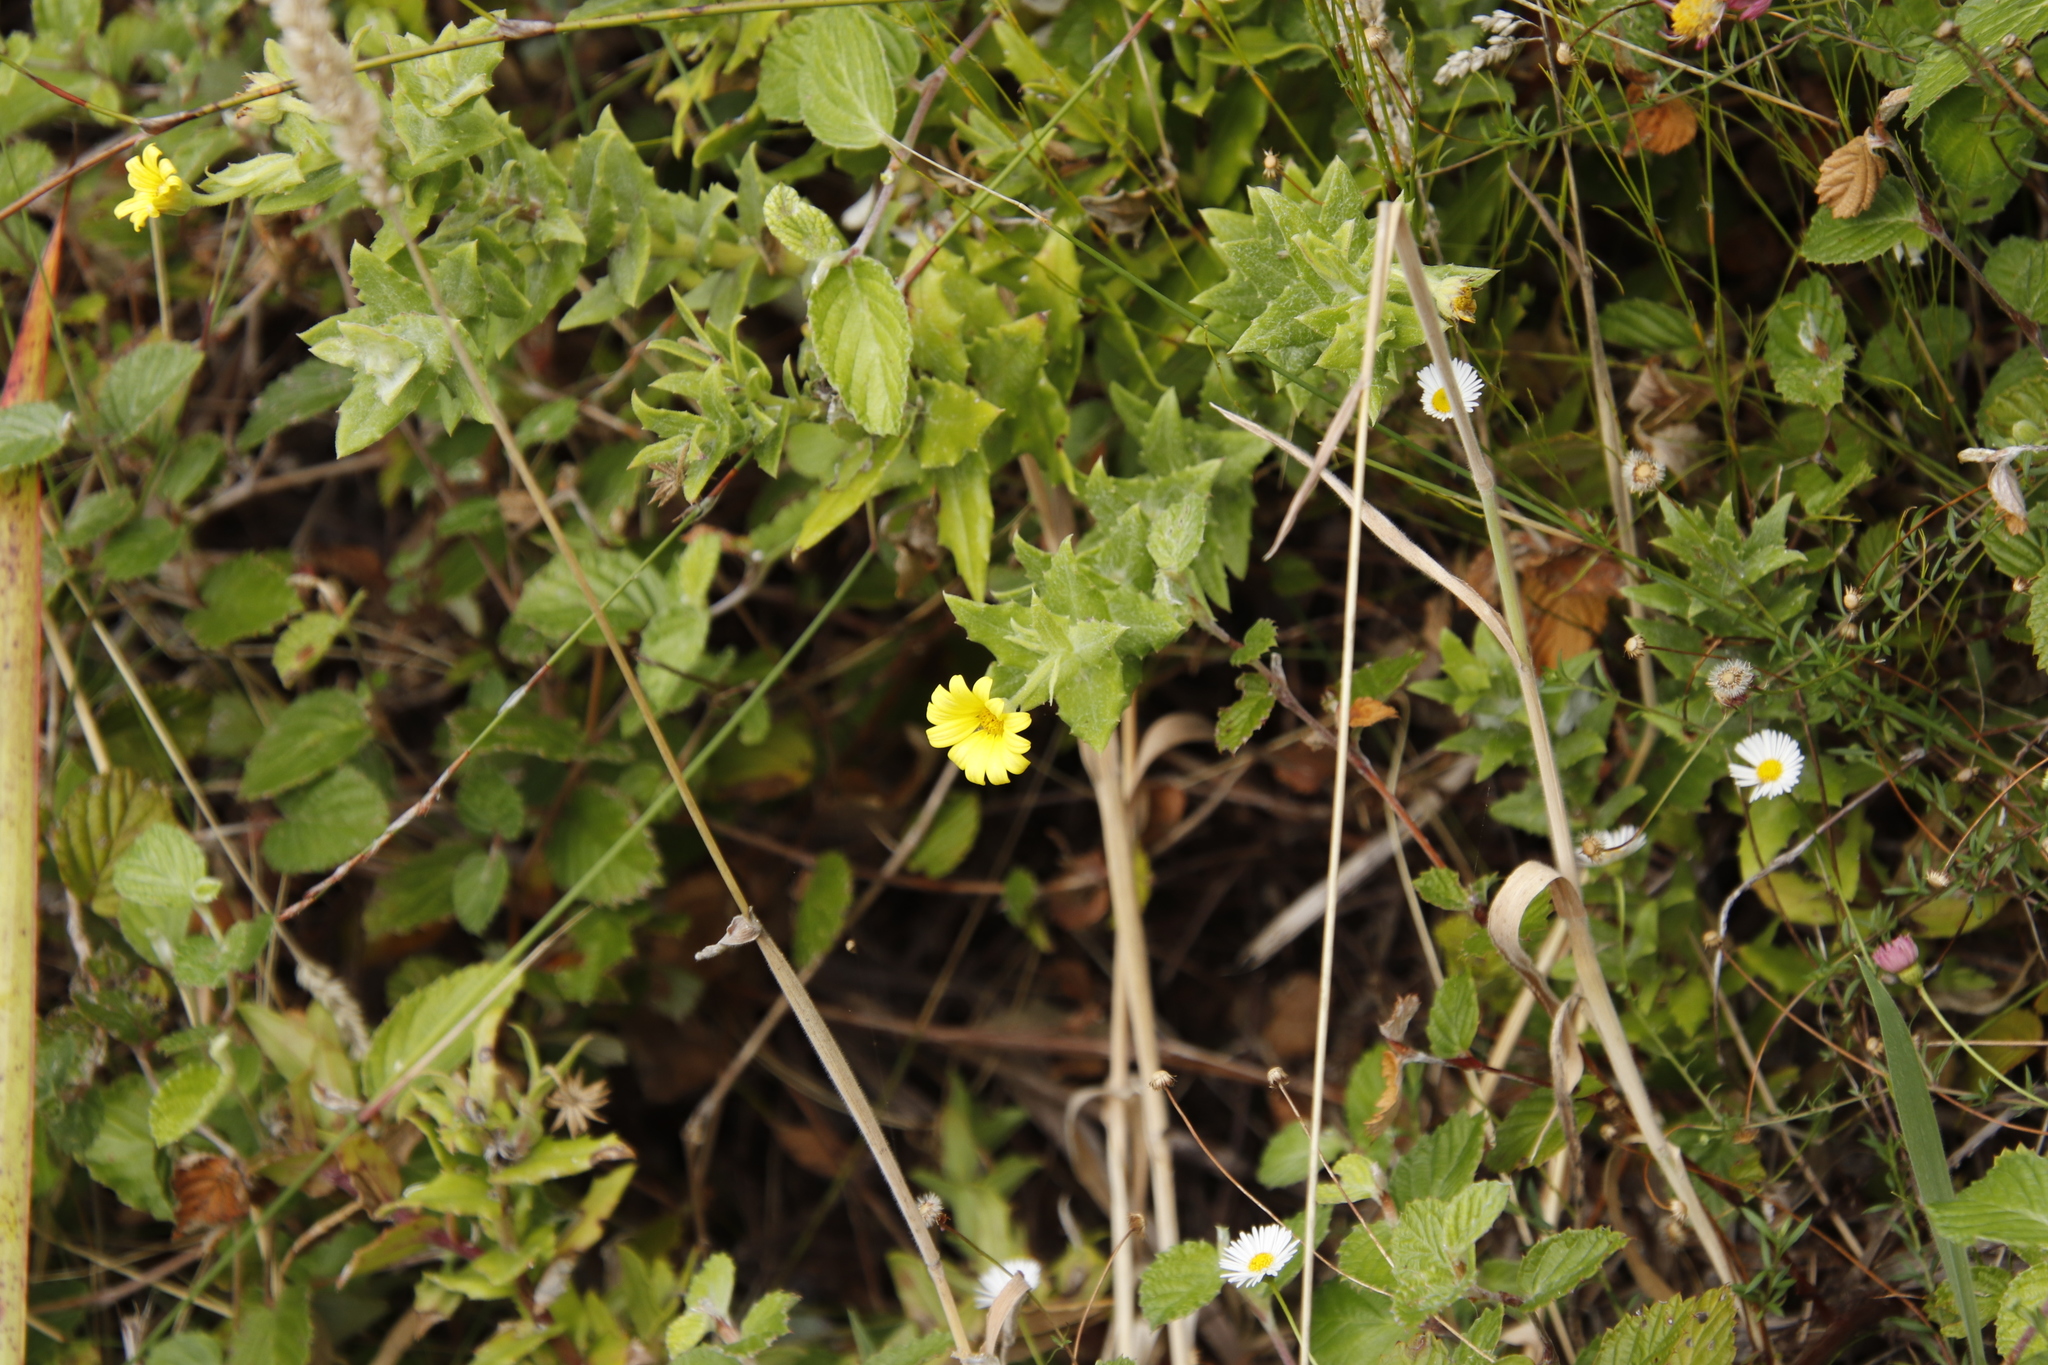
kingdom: Plantae
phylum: Tracheophyta
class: Magnoliopsida
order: Asterales
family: Asteraceae
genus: Osteospermum
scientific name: Osteospermum ilicifolium
